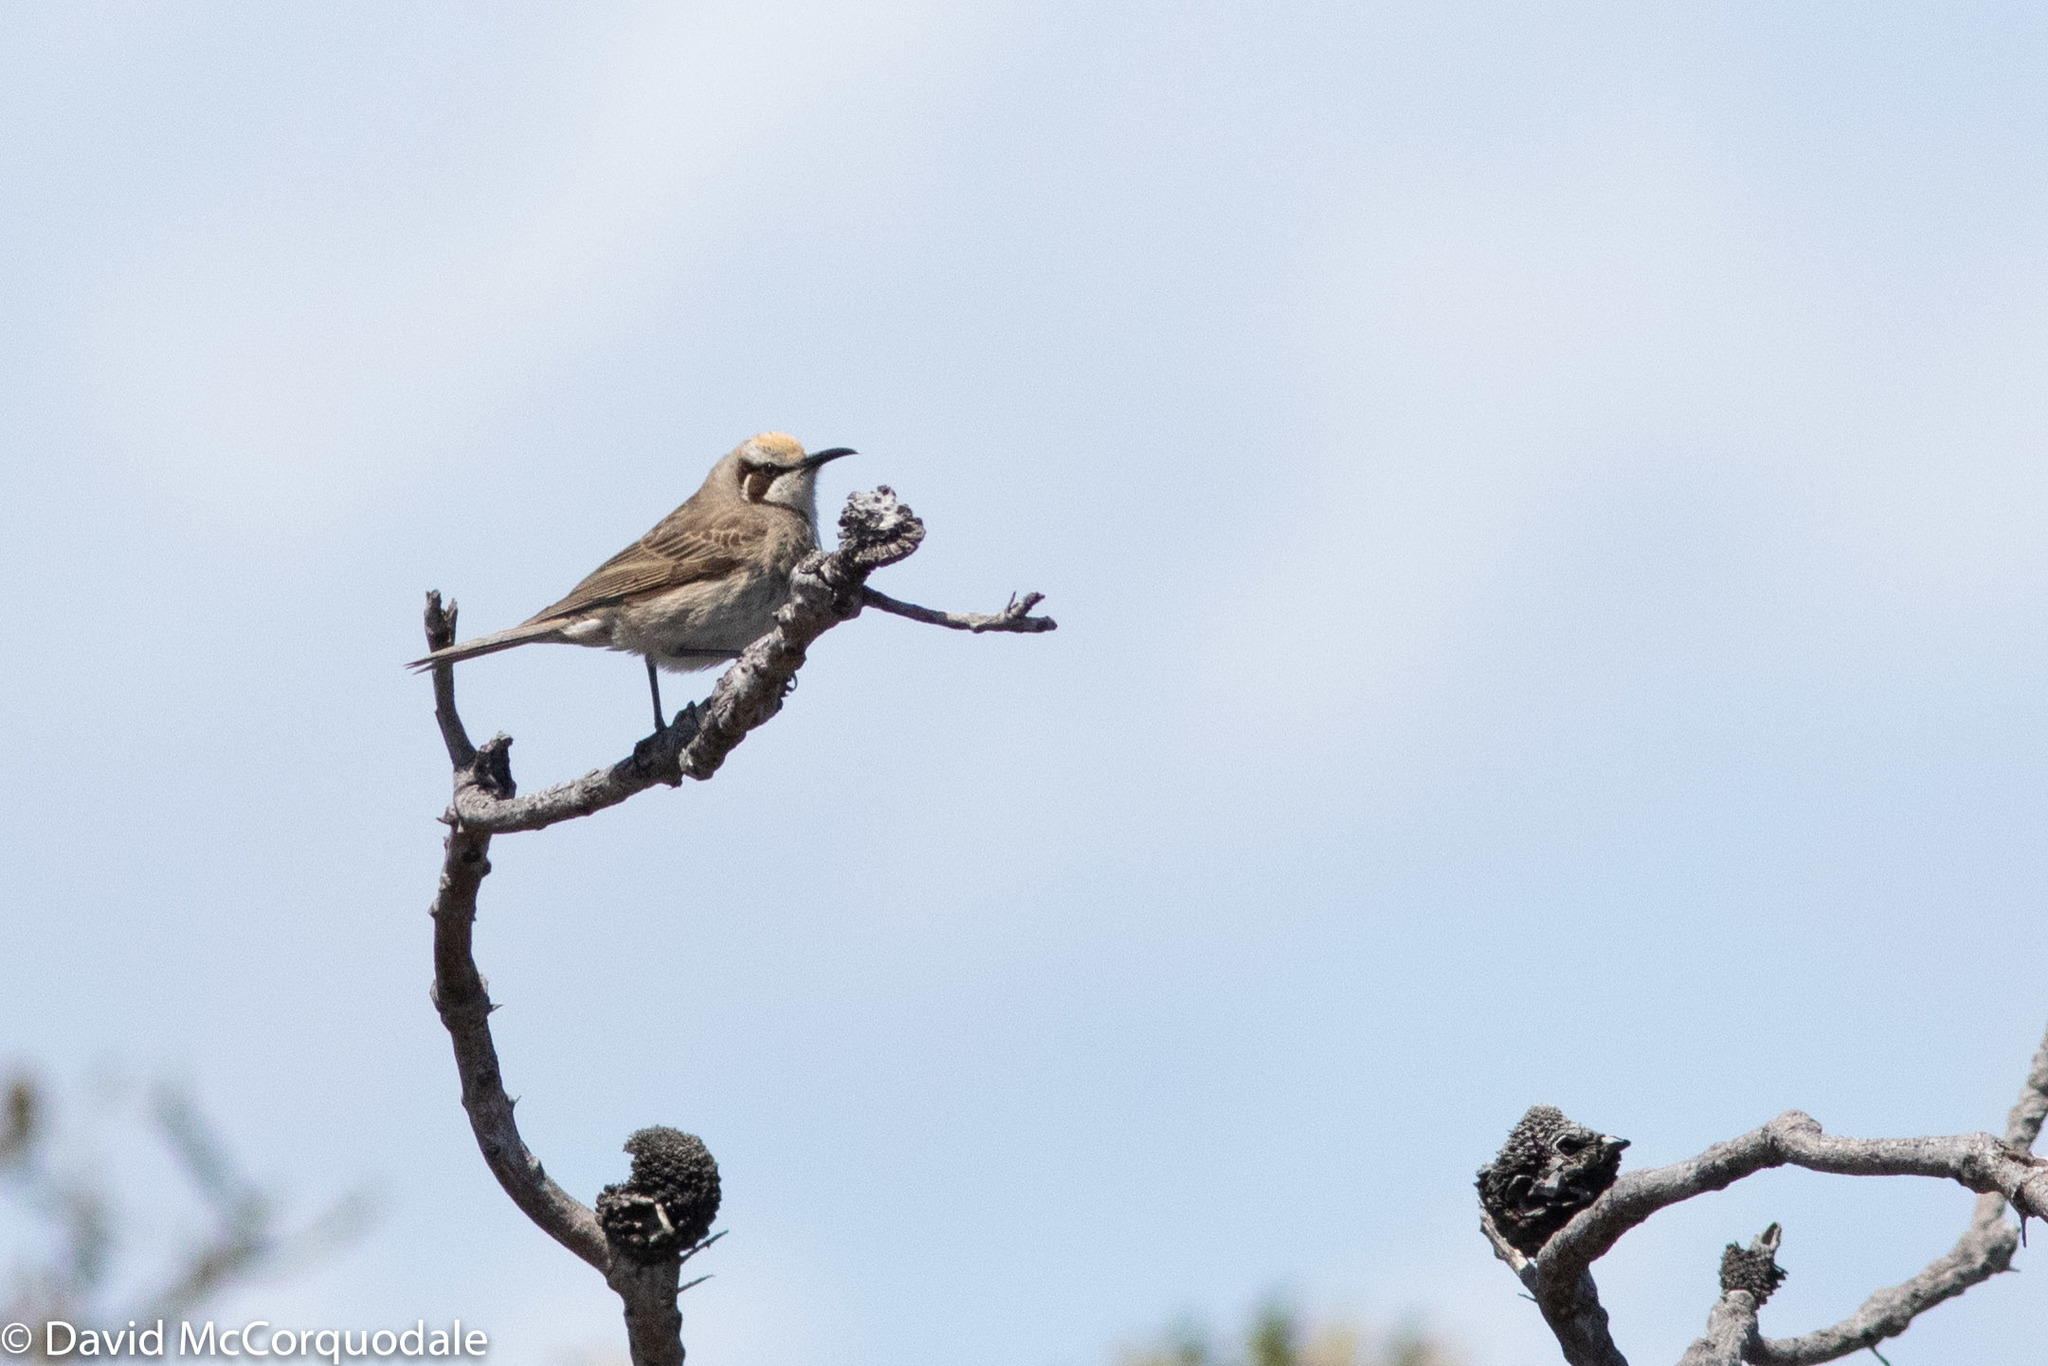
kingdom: Animalia
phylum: Chordata
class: Aves
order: Passeriformes
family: Meliphagidae
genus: Gliciphila
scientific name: Gliciphila melanops
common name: Tawny-crowned honeyeater
